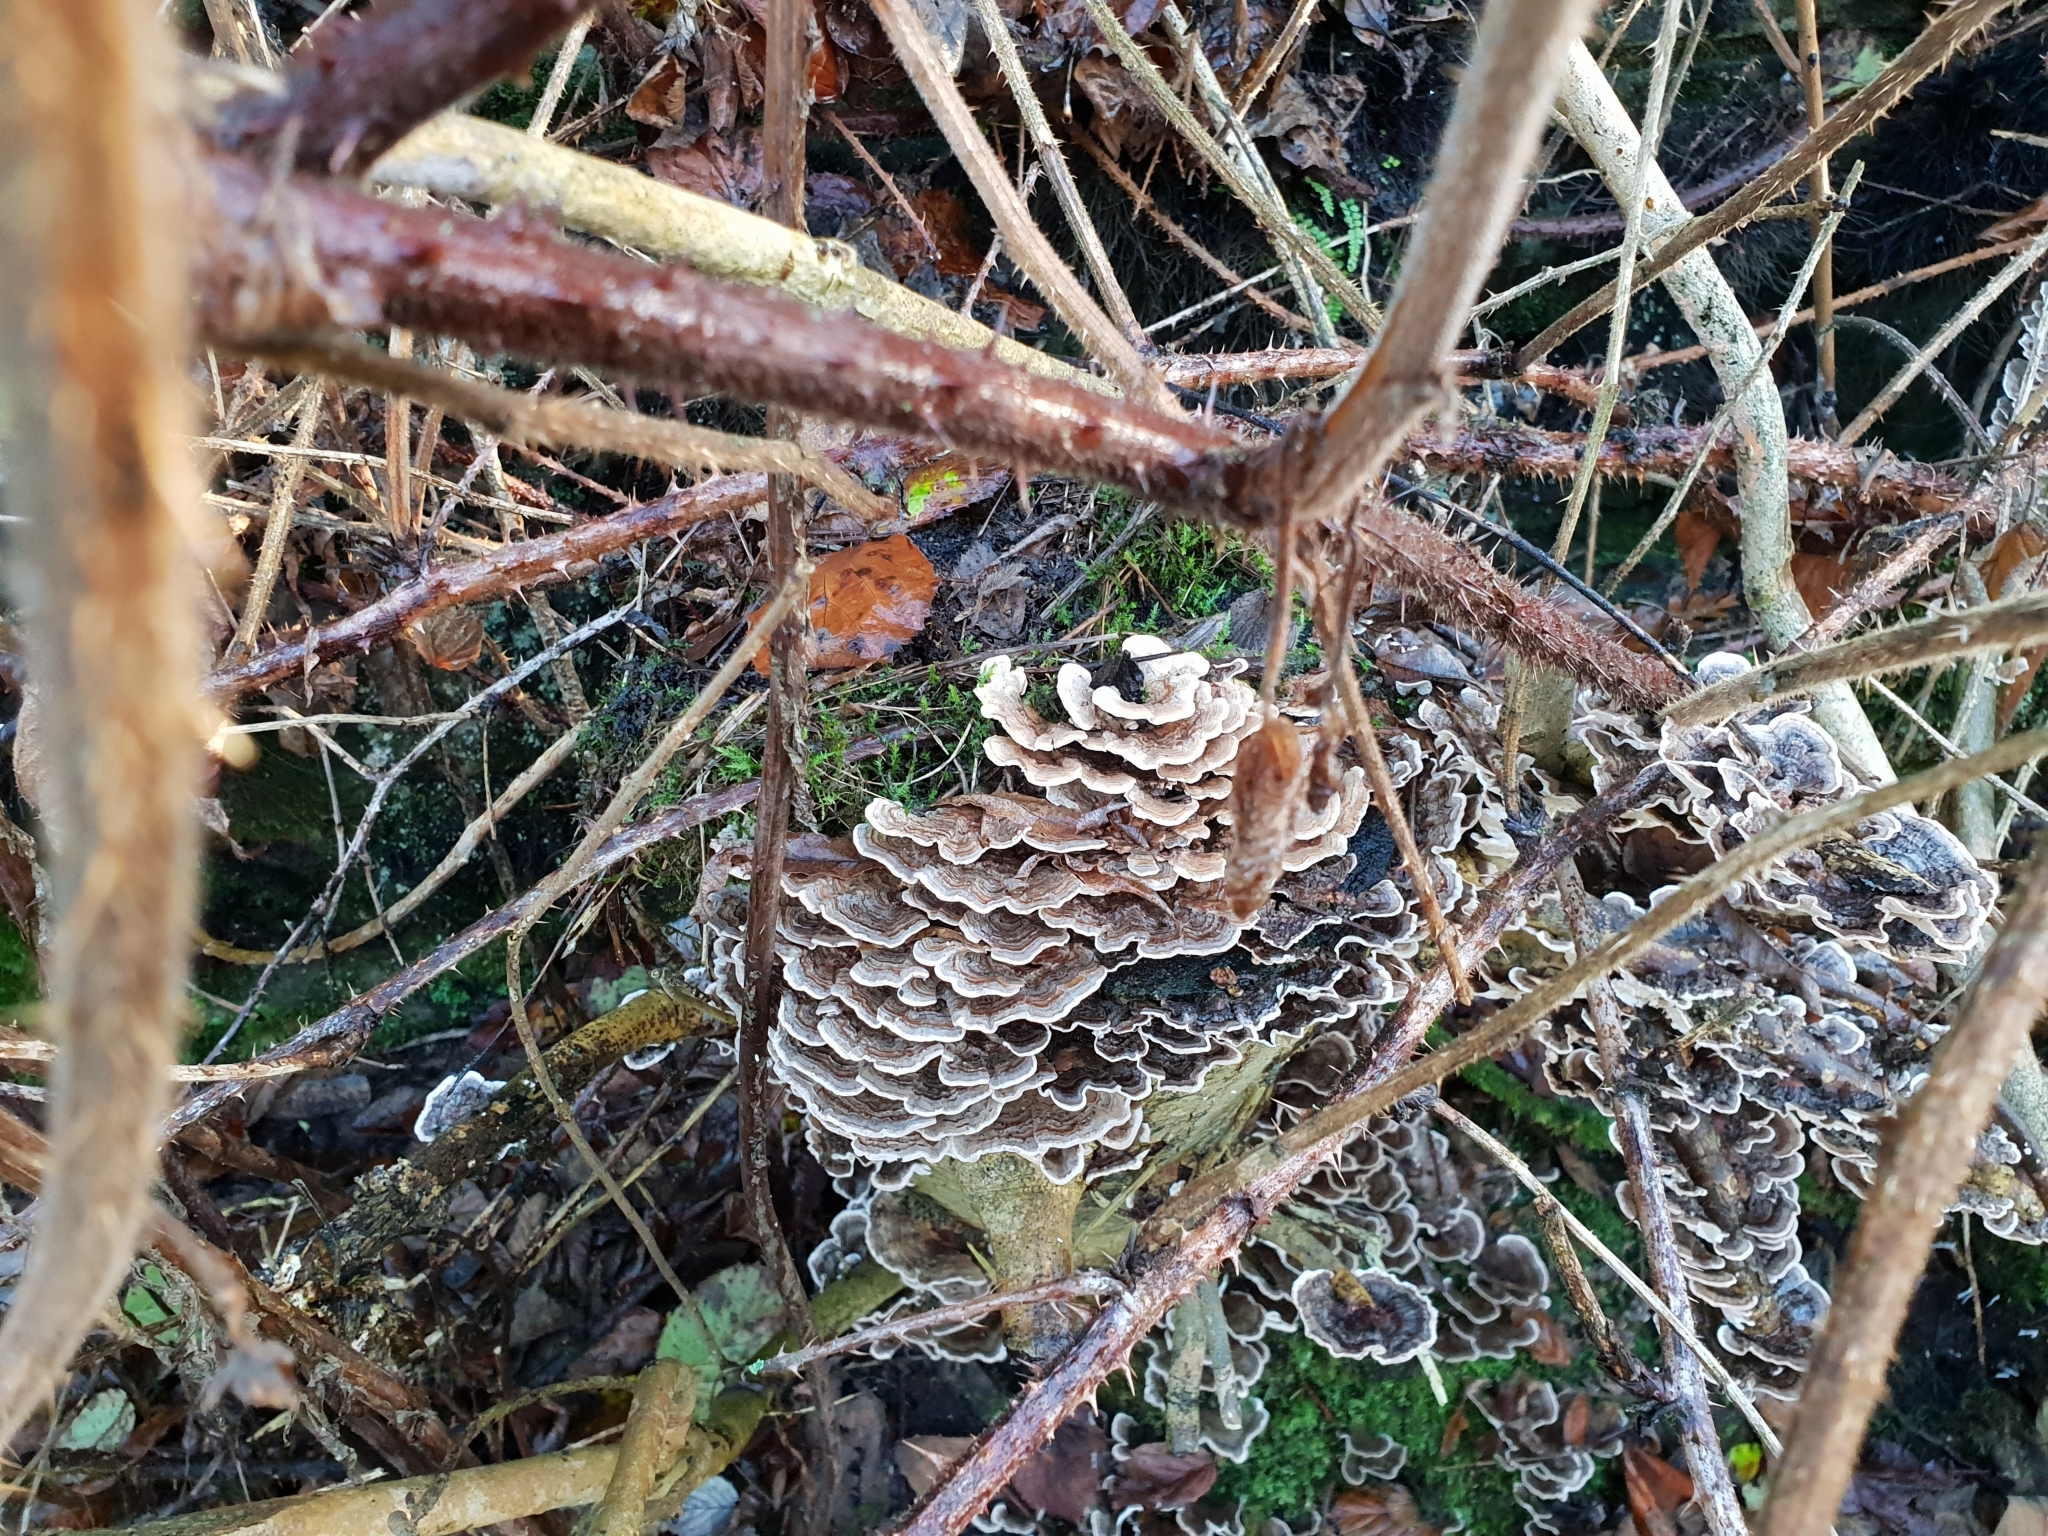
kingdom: Fungi
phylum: Basidiomycota
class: Agaricomycetes
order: Polyporales
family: Polyporaceae
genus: Trametes
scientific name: Trametes versicolor
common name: Turkeytail
